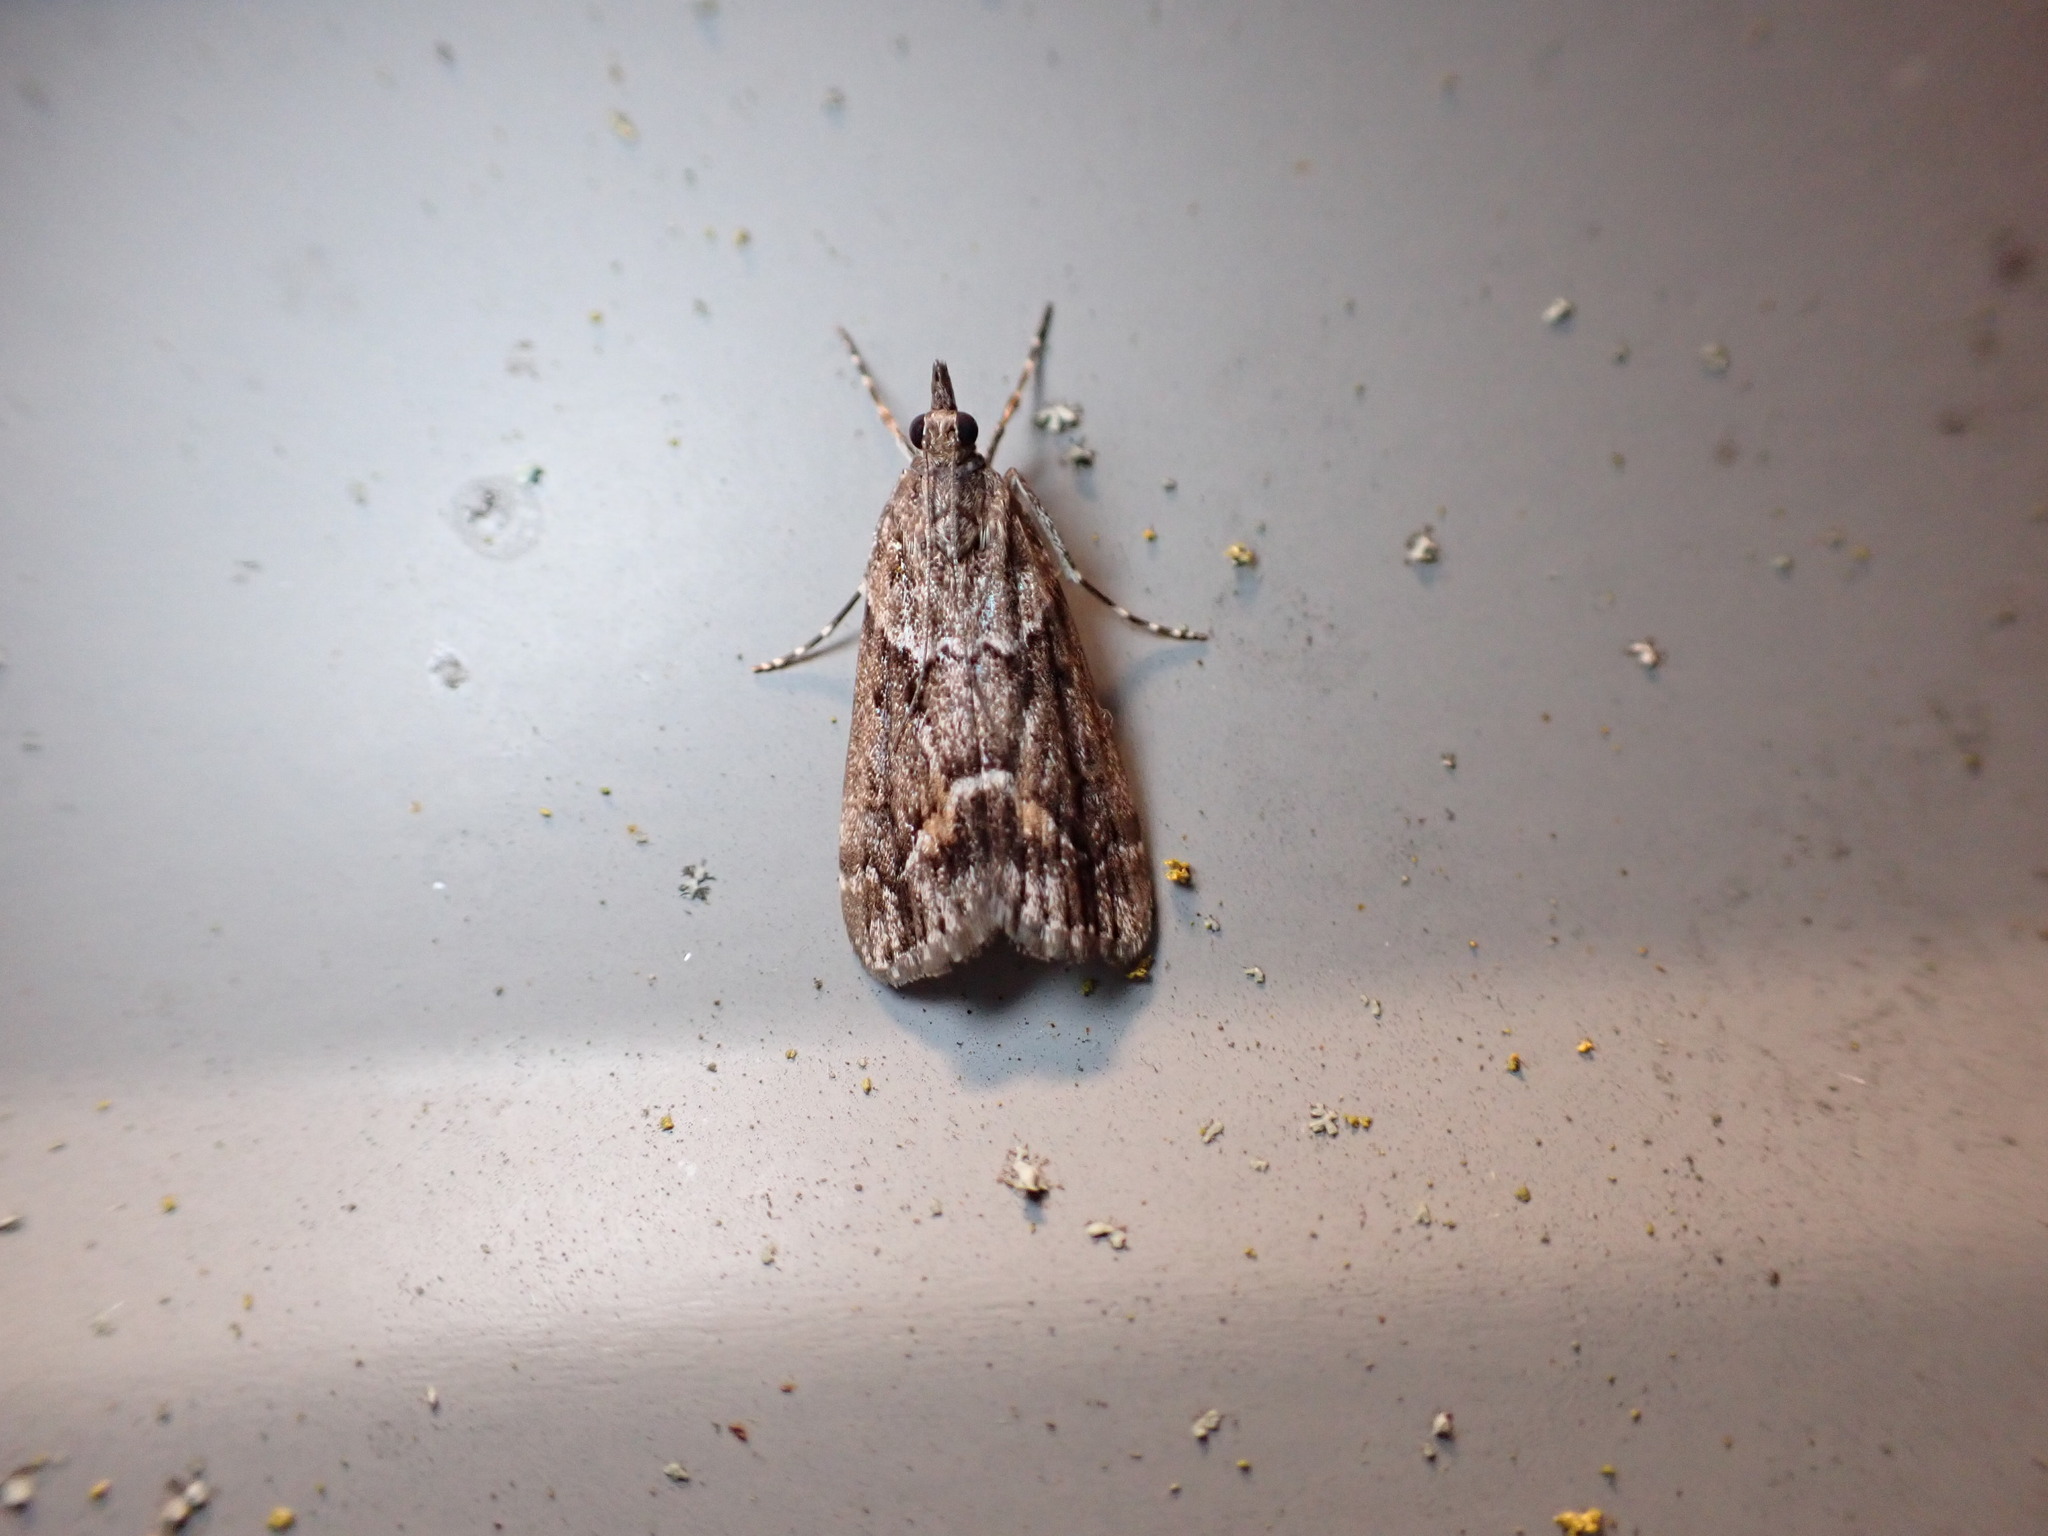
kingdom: Animalia
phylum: Arthropoda
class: Insecta
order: Lepidoptera
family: Crambidae
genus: Eudonia
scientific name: Eudonia submarginalis
